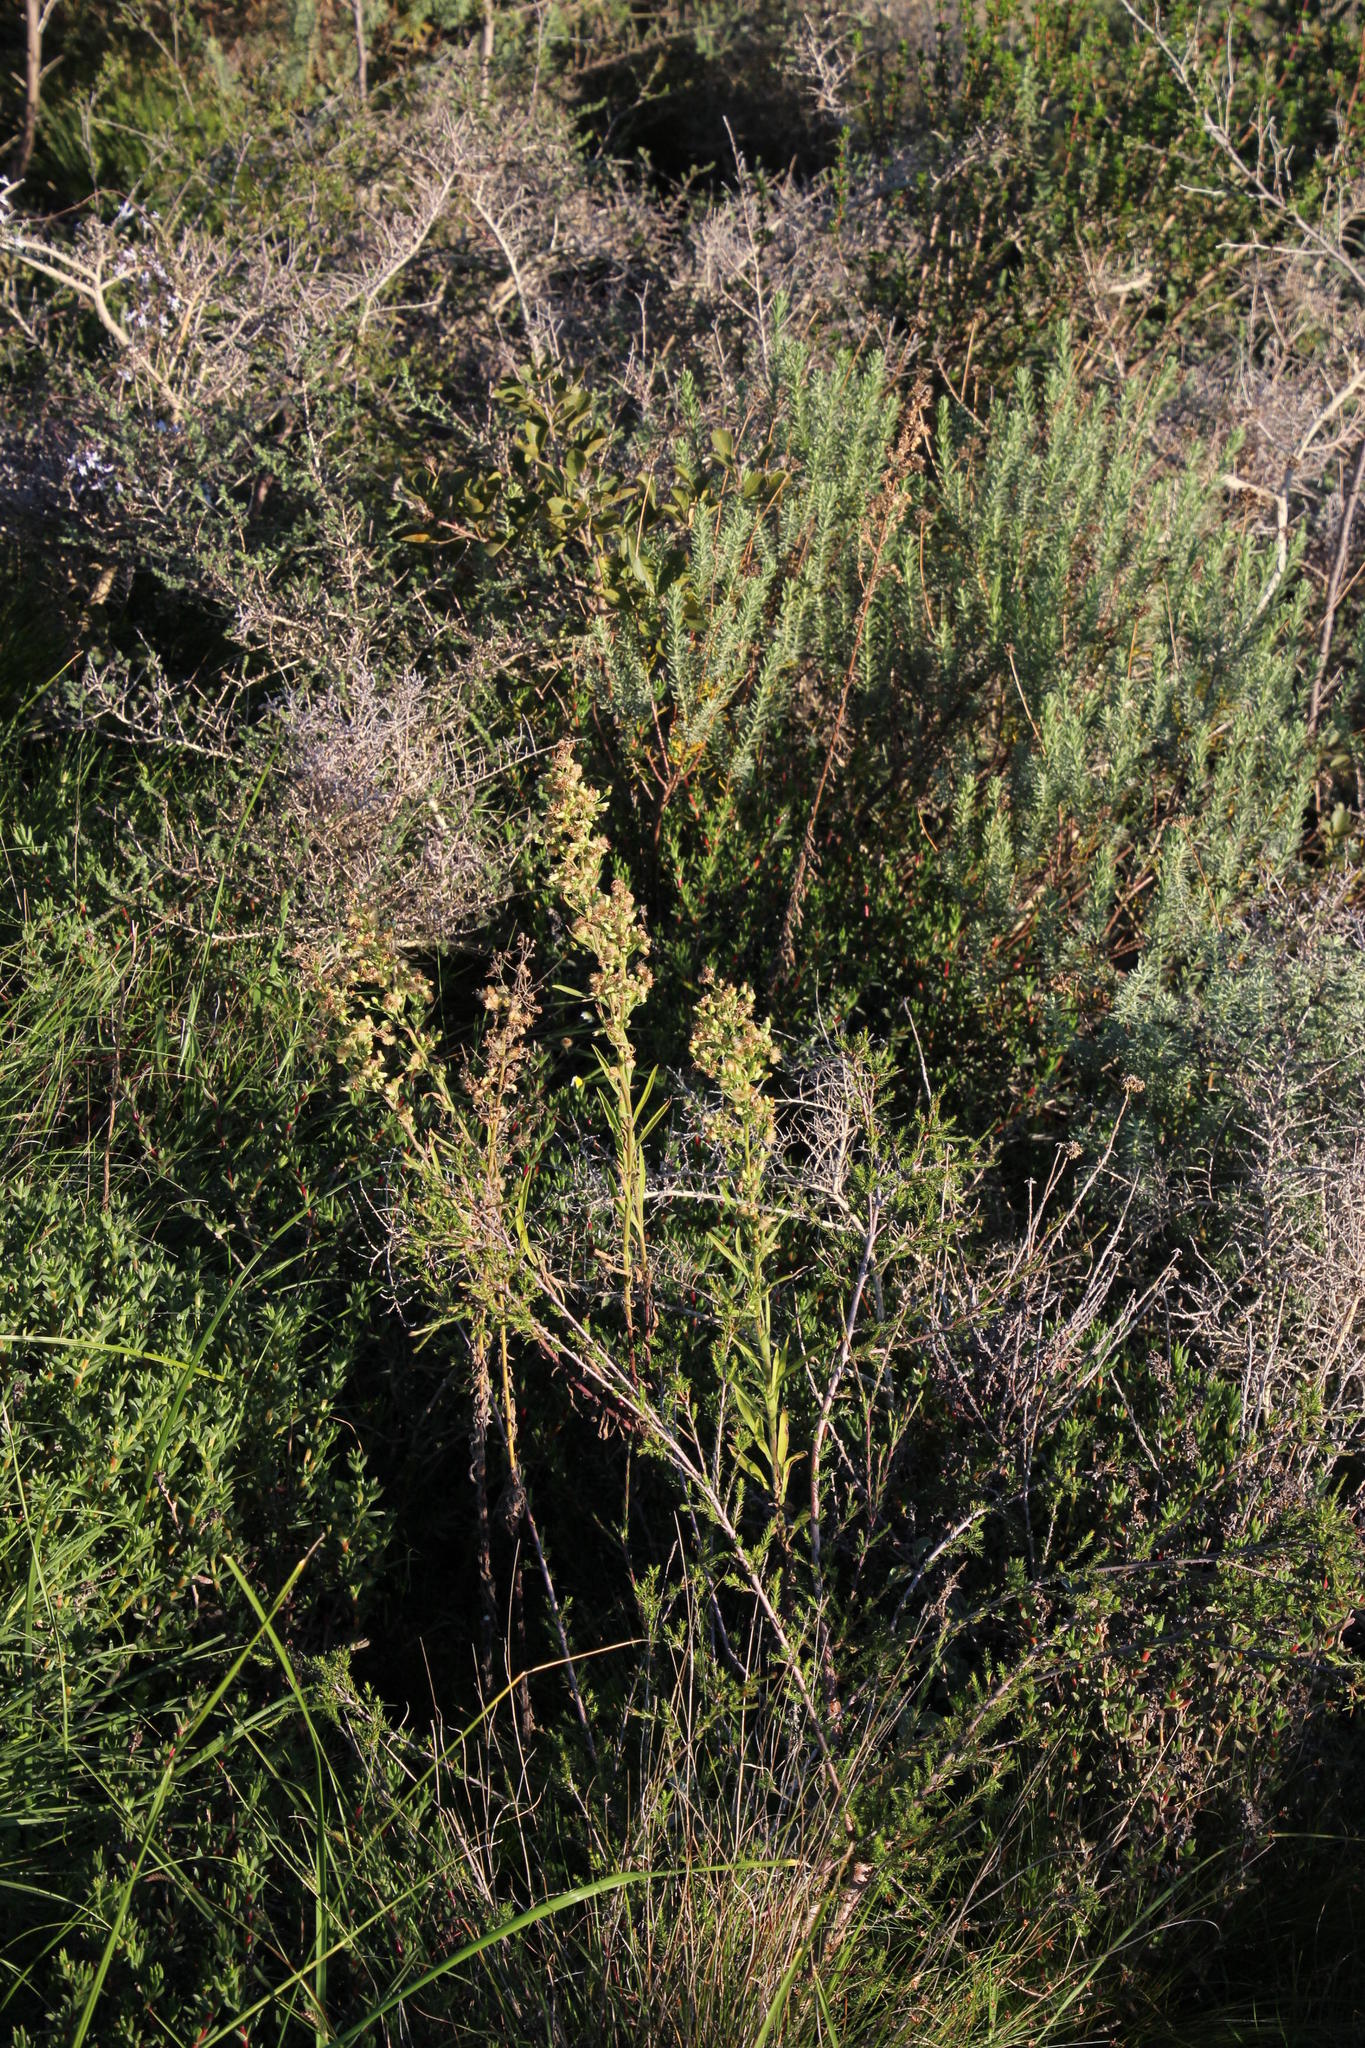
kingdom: Plantae
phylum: Tracheophyta
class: Magnoliopsida
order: Asterales
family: Asteraceae
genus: Erigeron
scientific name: Erigeron bonariensis
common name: Argentine fleabane
